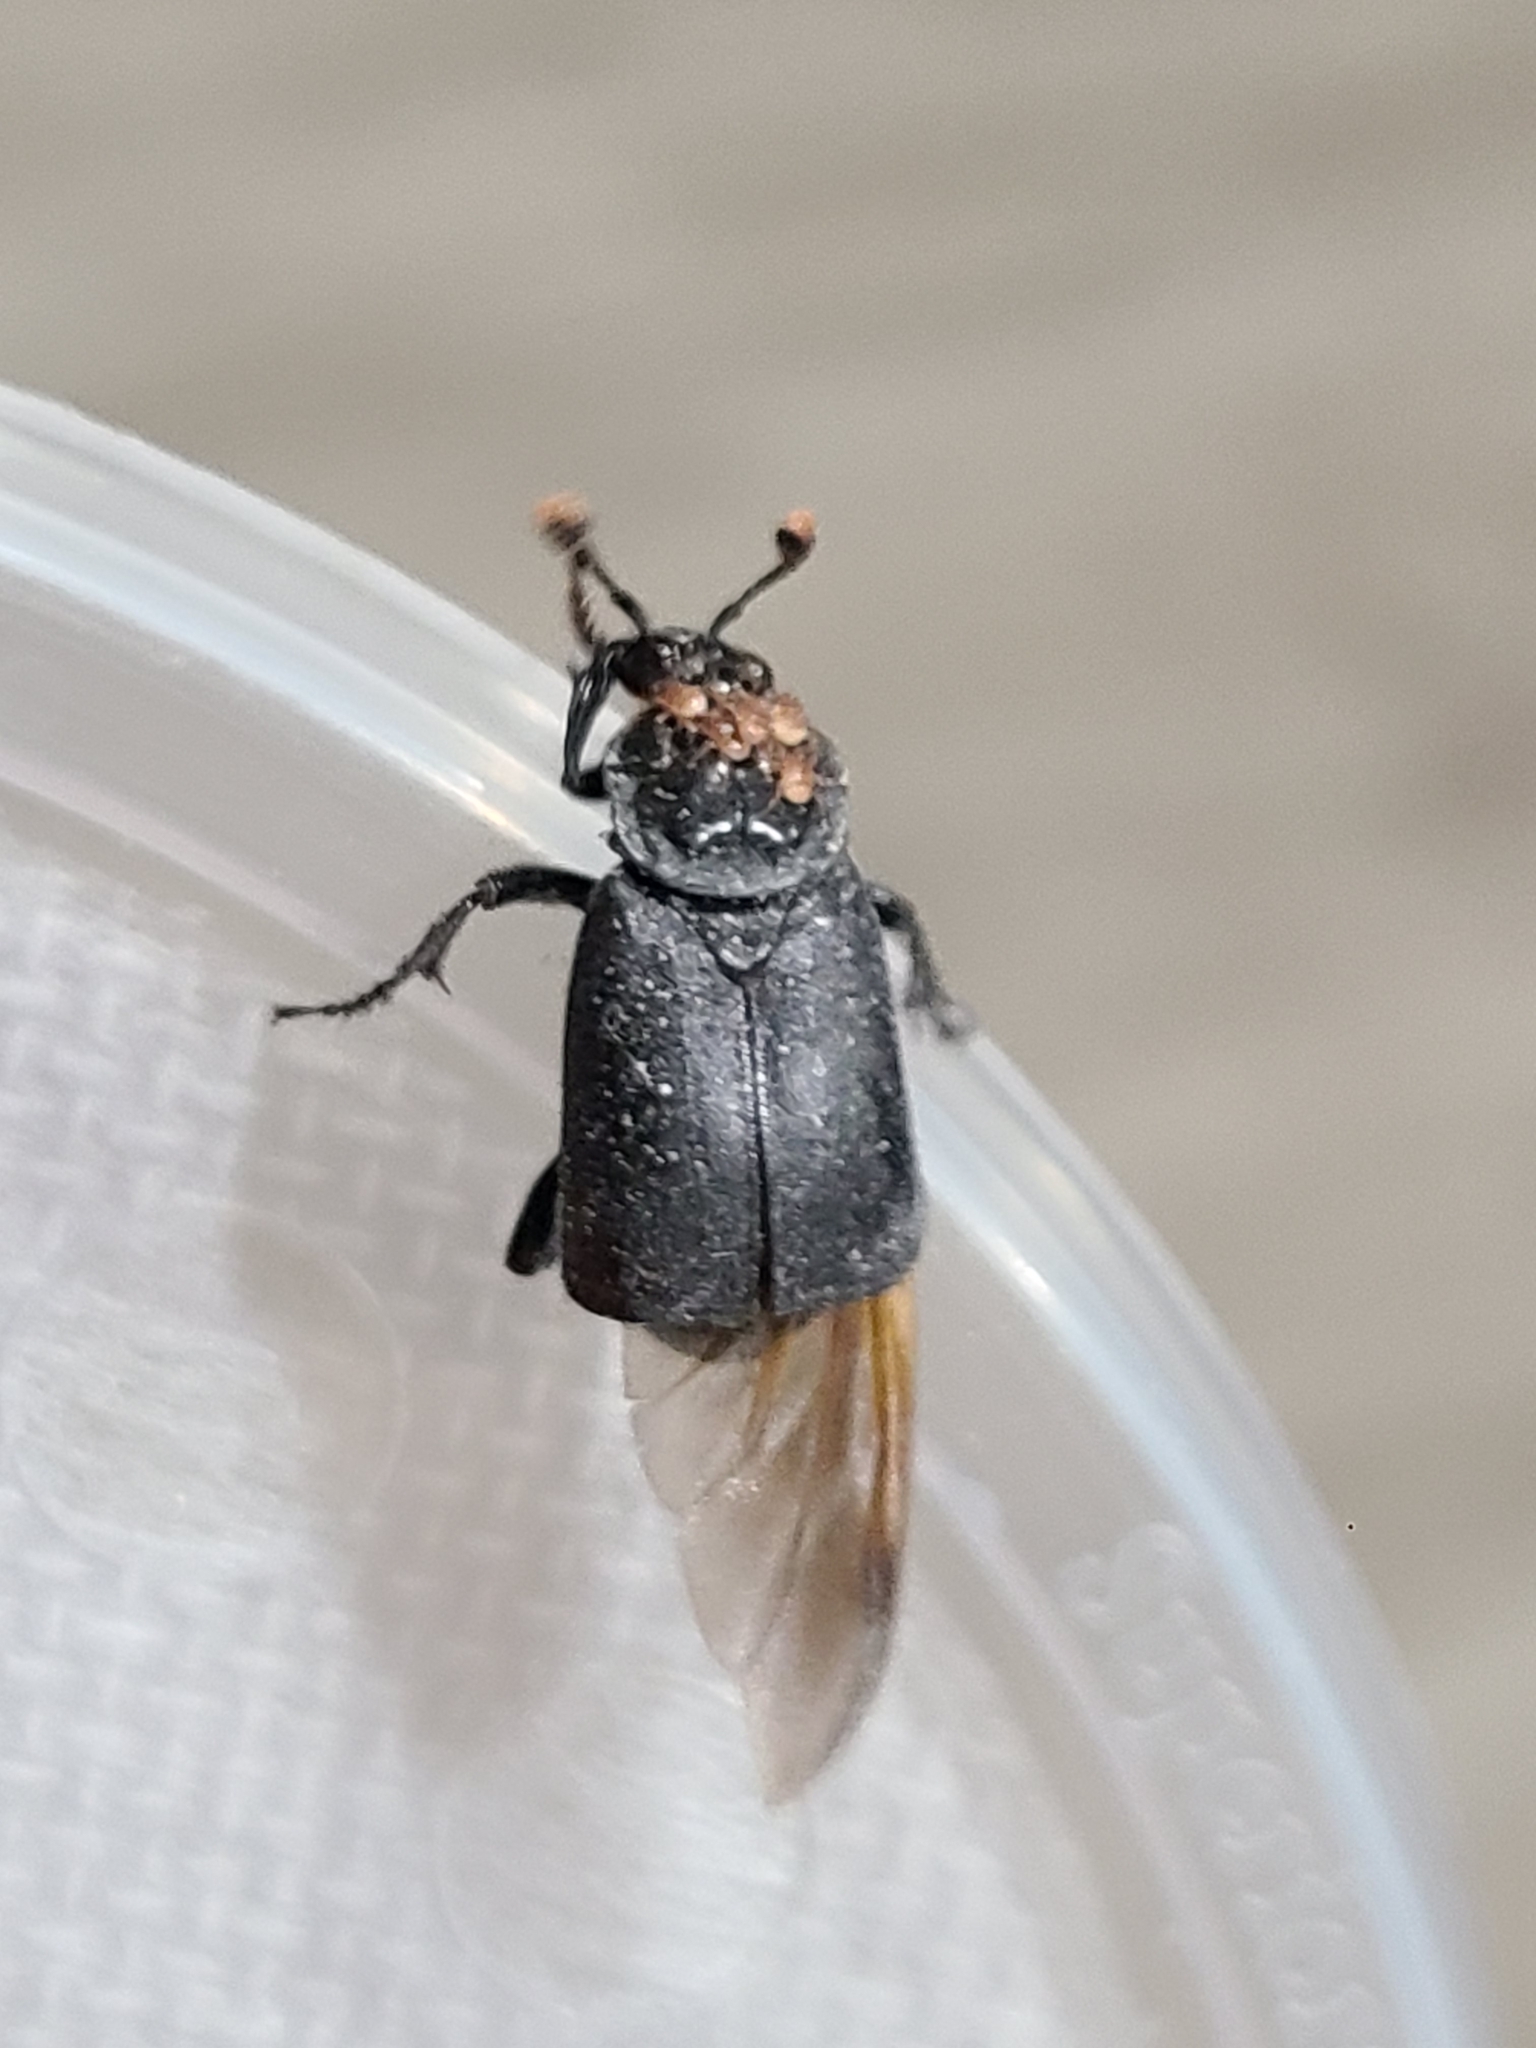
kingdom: Animalia
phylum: Arthropoda
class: Insecta
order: Coleoptera
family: Staphylinidae
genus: Nicrophorus
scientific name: Nicrophorus nigrita
